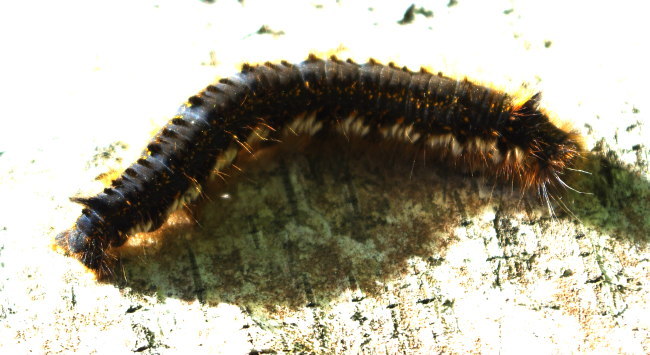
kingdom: Animalia
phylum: Arthropoda
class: Insecta
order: Lepidoptera
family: Lasiocampidae
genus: Euthrix
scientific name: Euthrix potatoria
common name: Drinker
